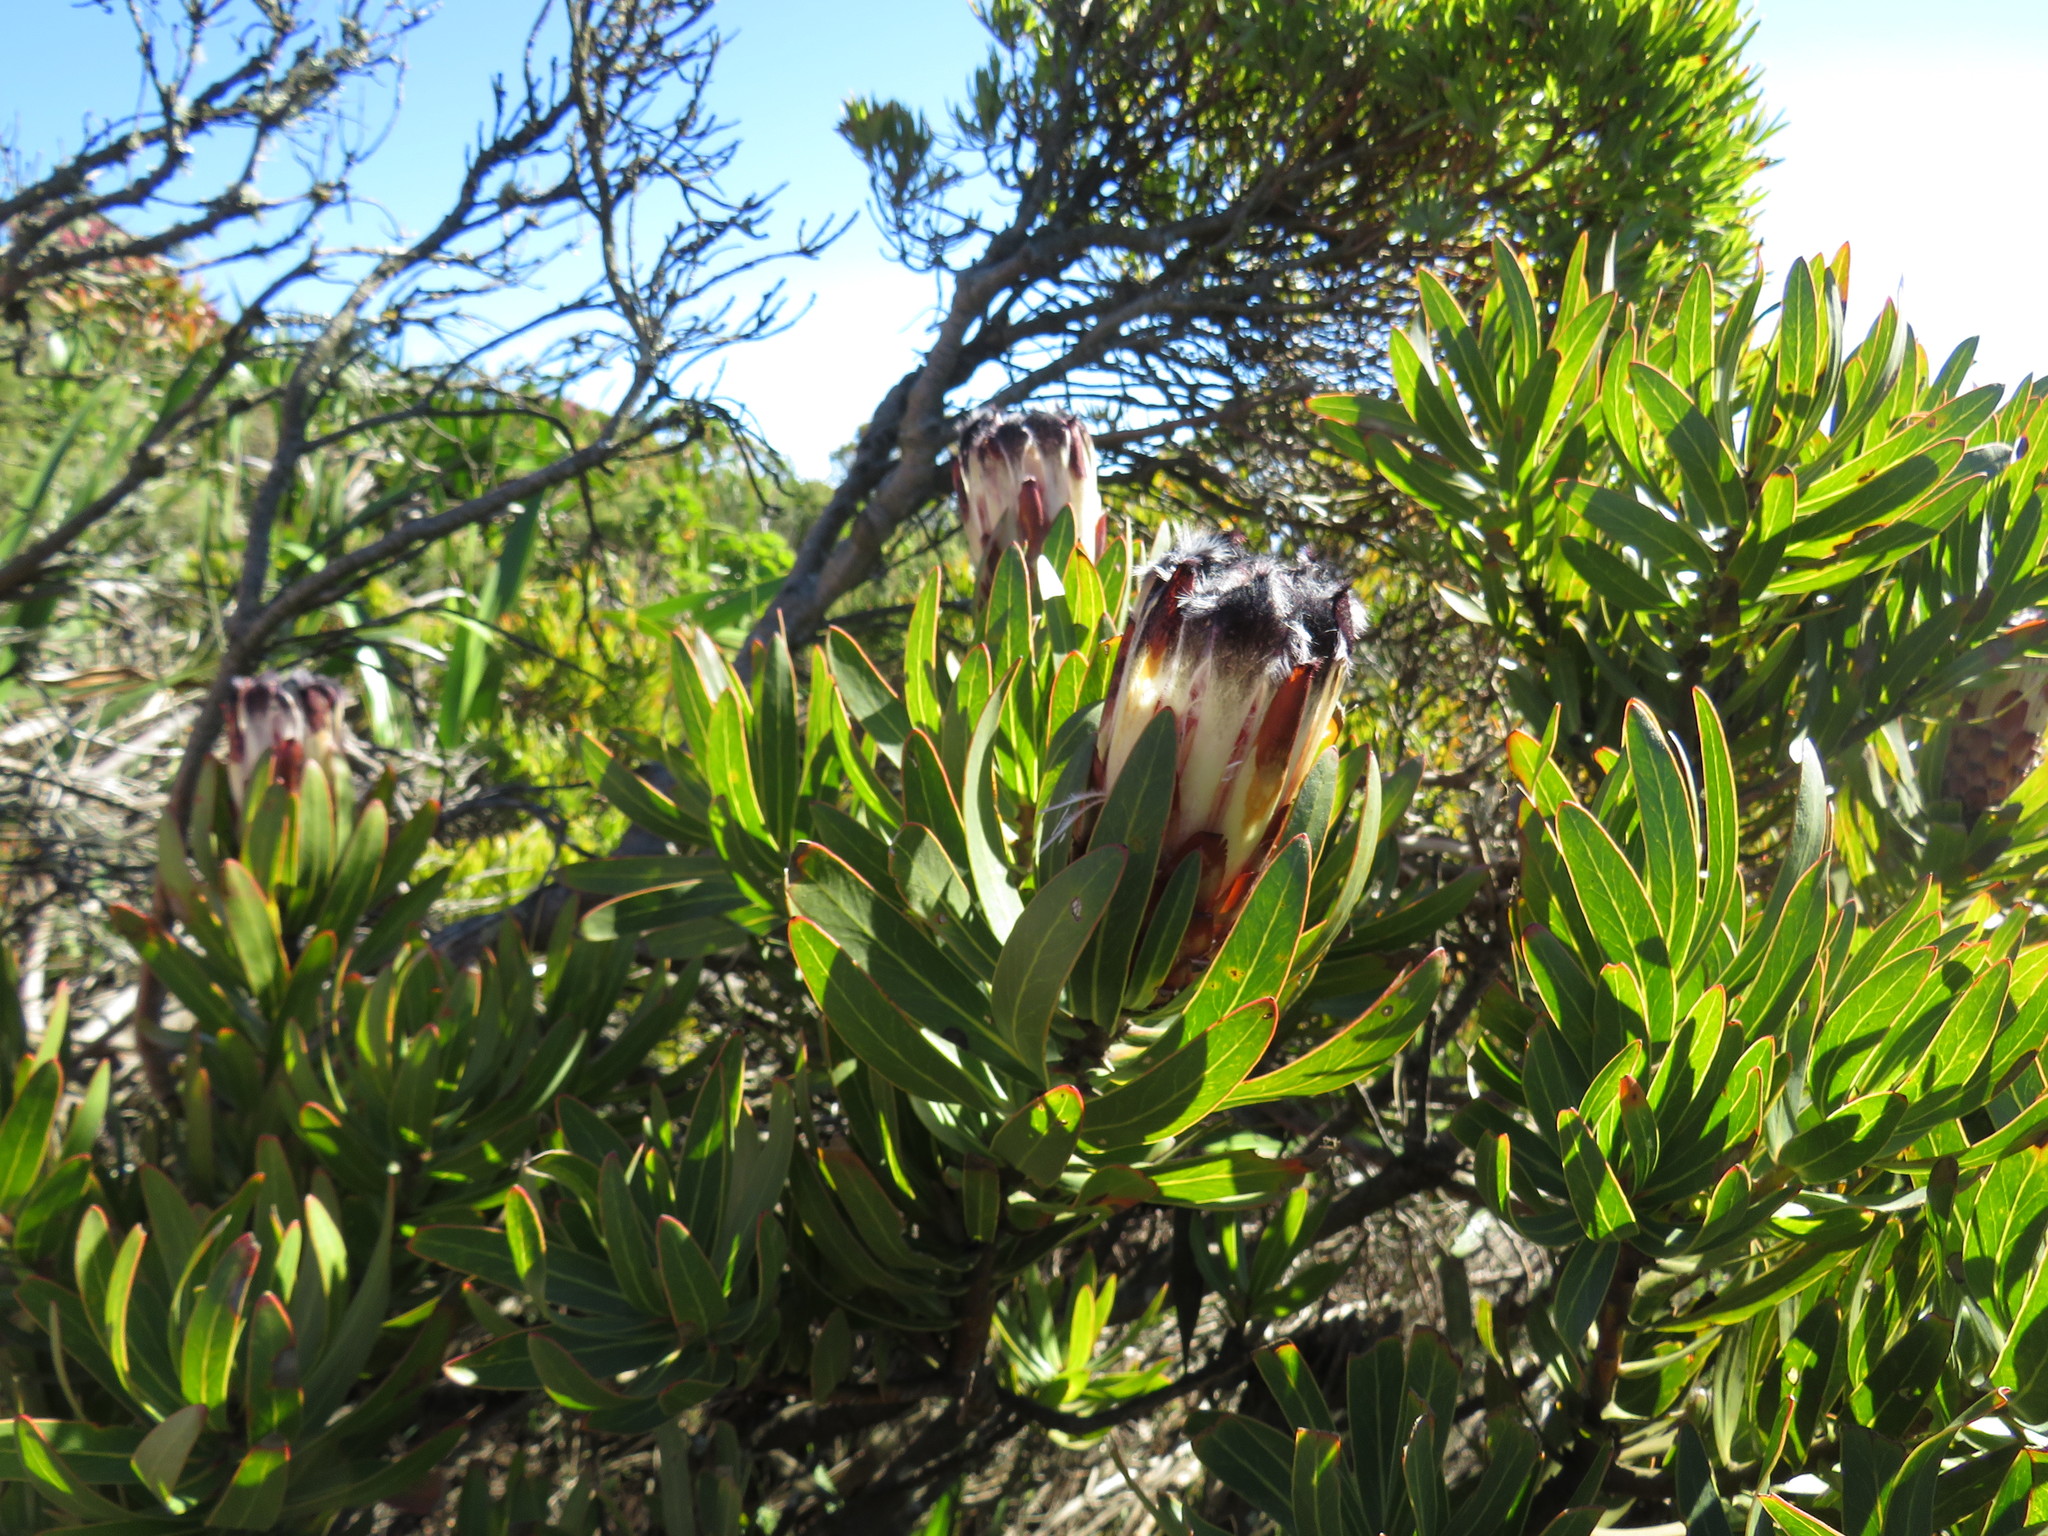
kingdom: Plantae
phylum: Tracheophyta
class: Magnoliopsida
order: Proteales
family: Proteaceae
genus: Protea
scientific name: Protea lepidocarpodendron
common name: Black-bearded protea
